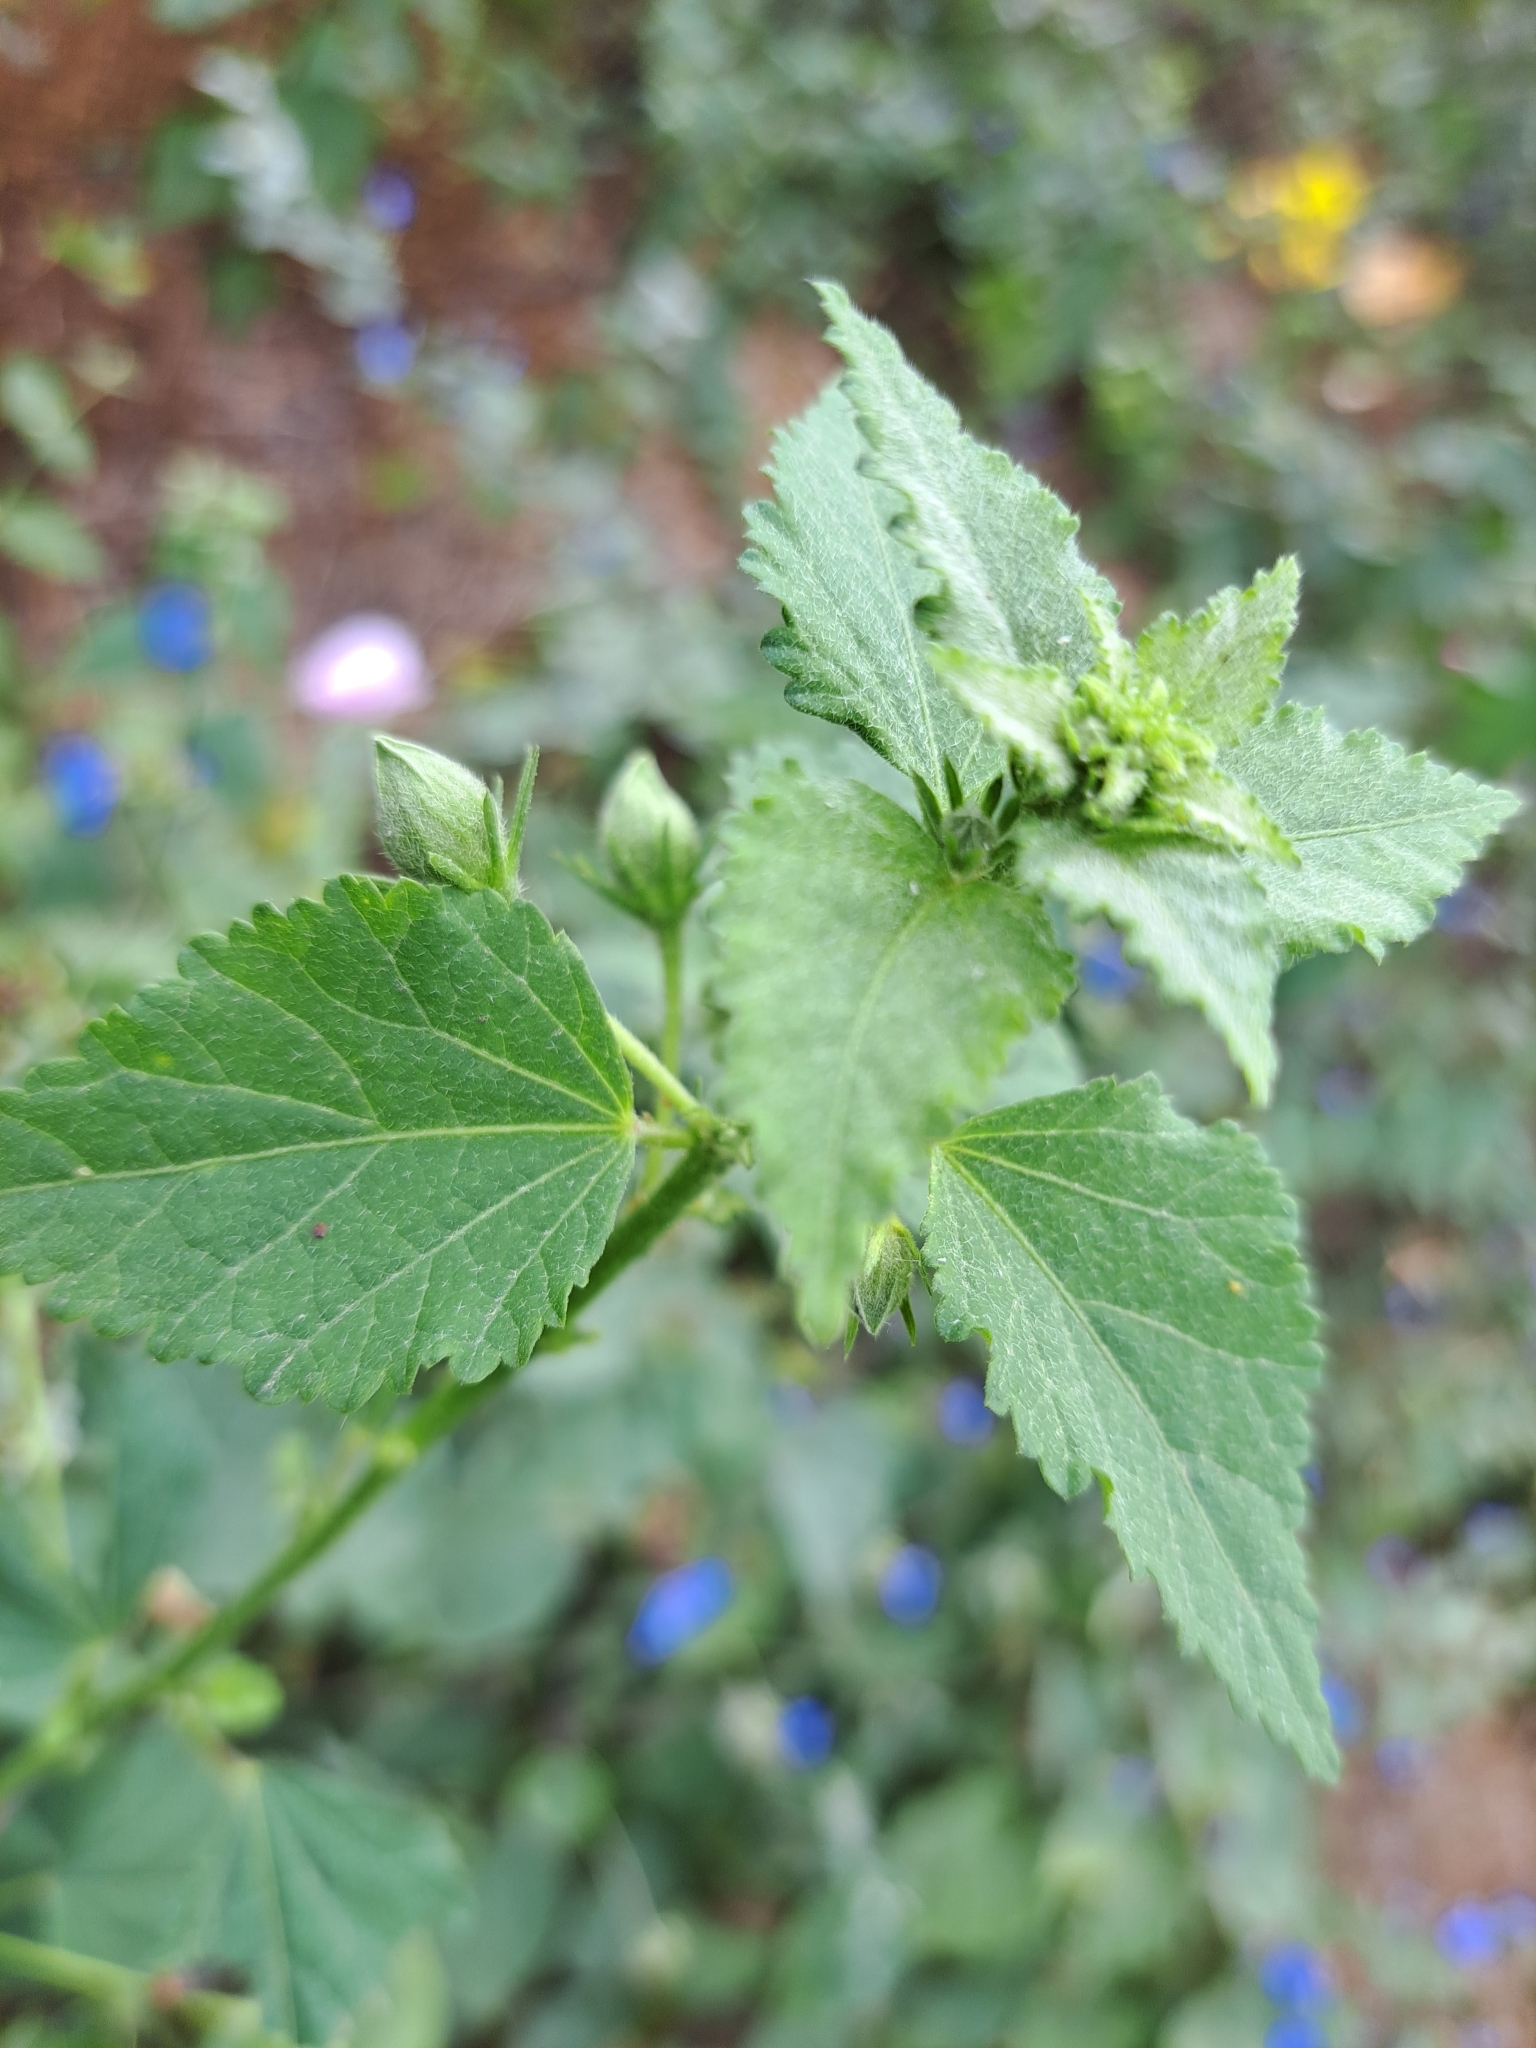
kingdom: Plantae
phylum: Tracheophyta
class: Magnoliopsida
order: Solanales
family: Solanaceae
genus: Solanum
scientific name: Solanum pimpinellifolium
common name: Currant-tomato
